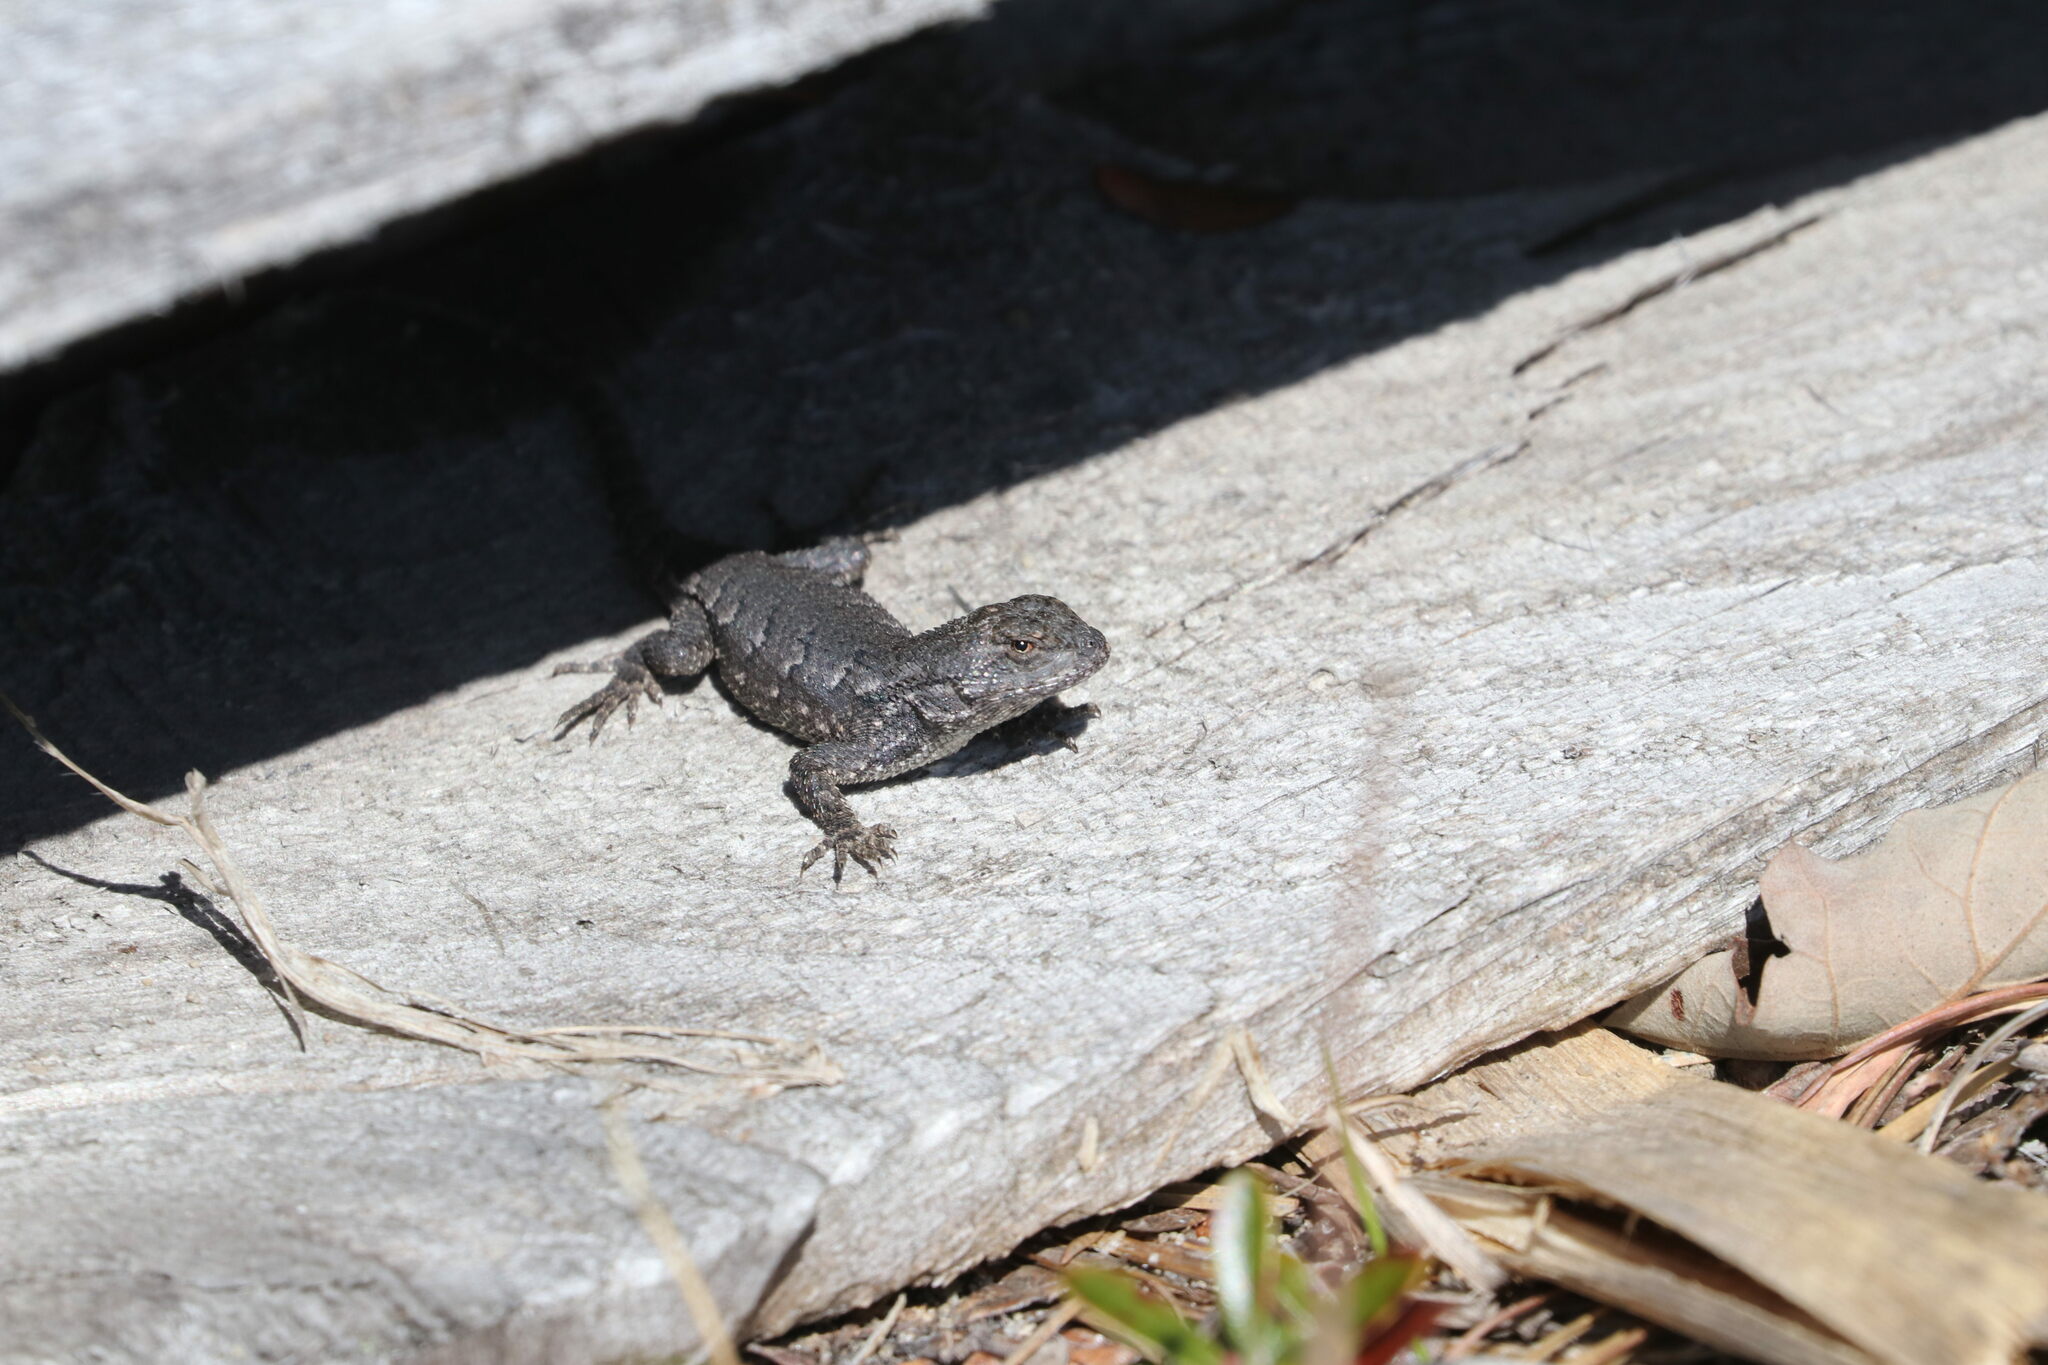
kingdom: Animalia
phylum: Chordata
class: Squamata
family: Phrynosomatidae
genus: Sceloporus
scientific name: Sceloporus undulatus
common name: Eastern fence lizard
